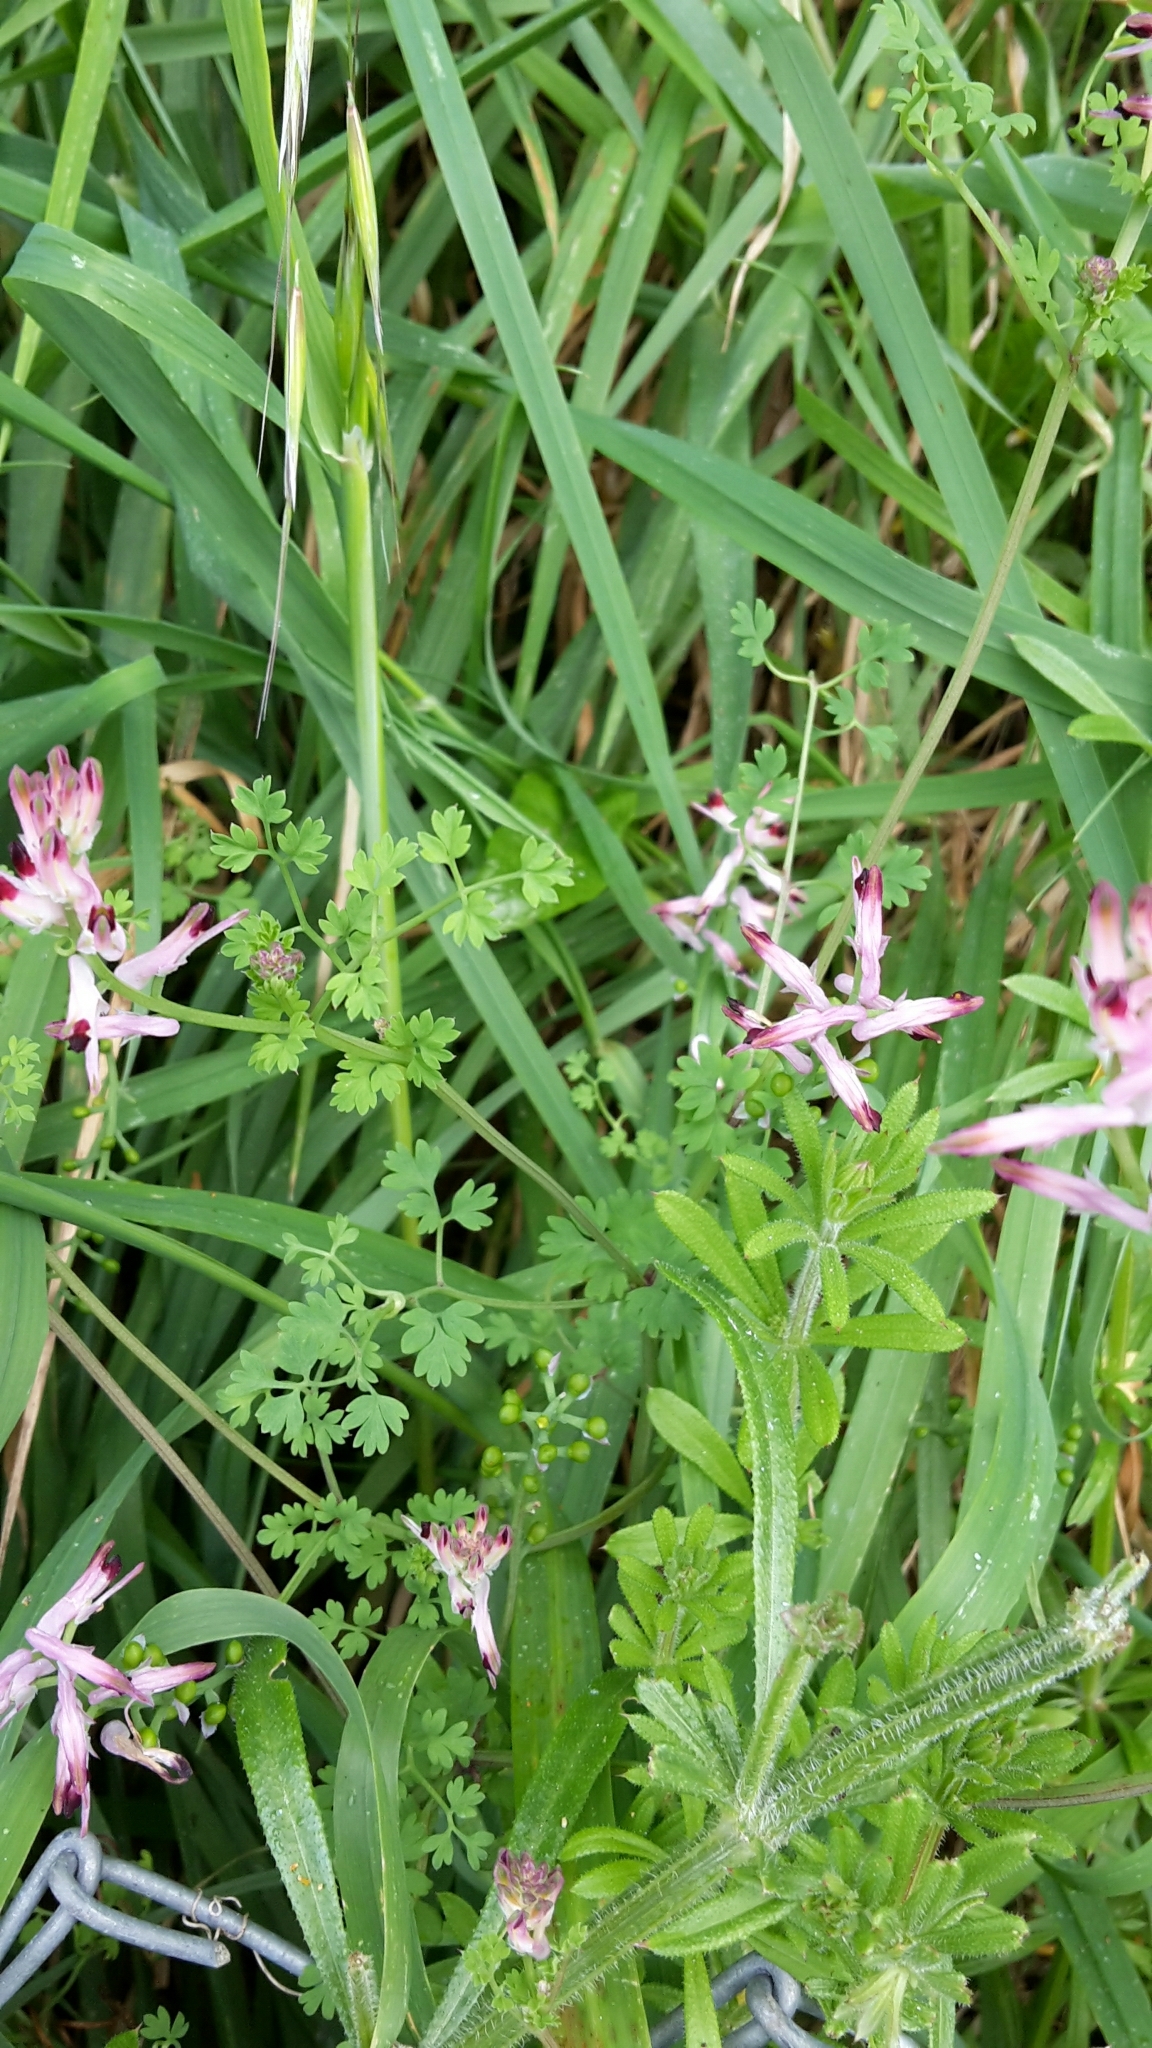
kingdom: Plantae
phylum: Tracheophyta
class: Magnoliopsida
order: Ranunculales
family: Papaveraceae
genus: Fumaria
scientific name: Fumaria muralis
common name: Common ramping-fumitory
